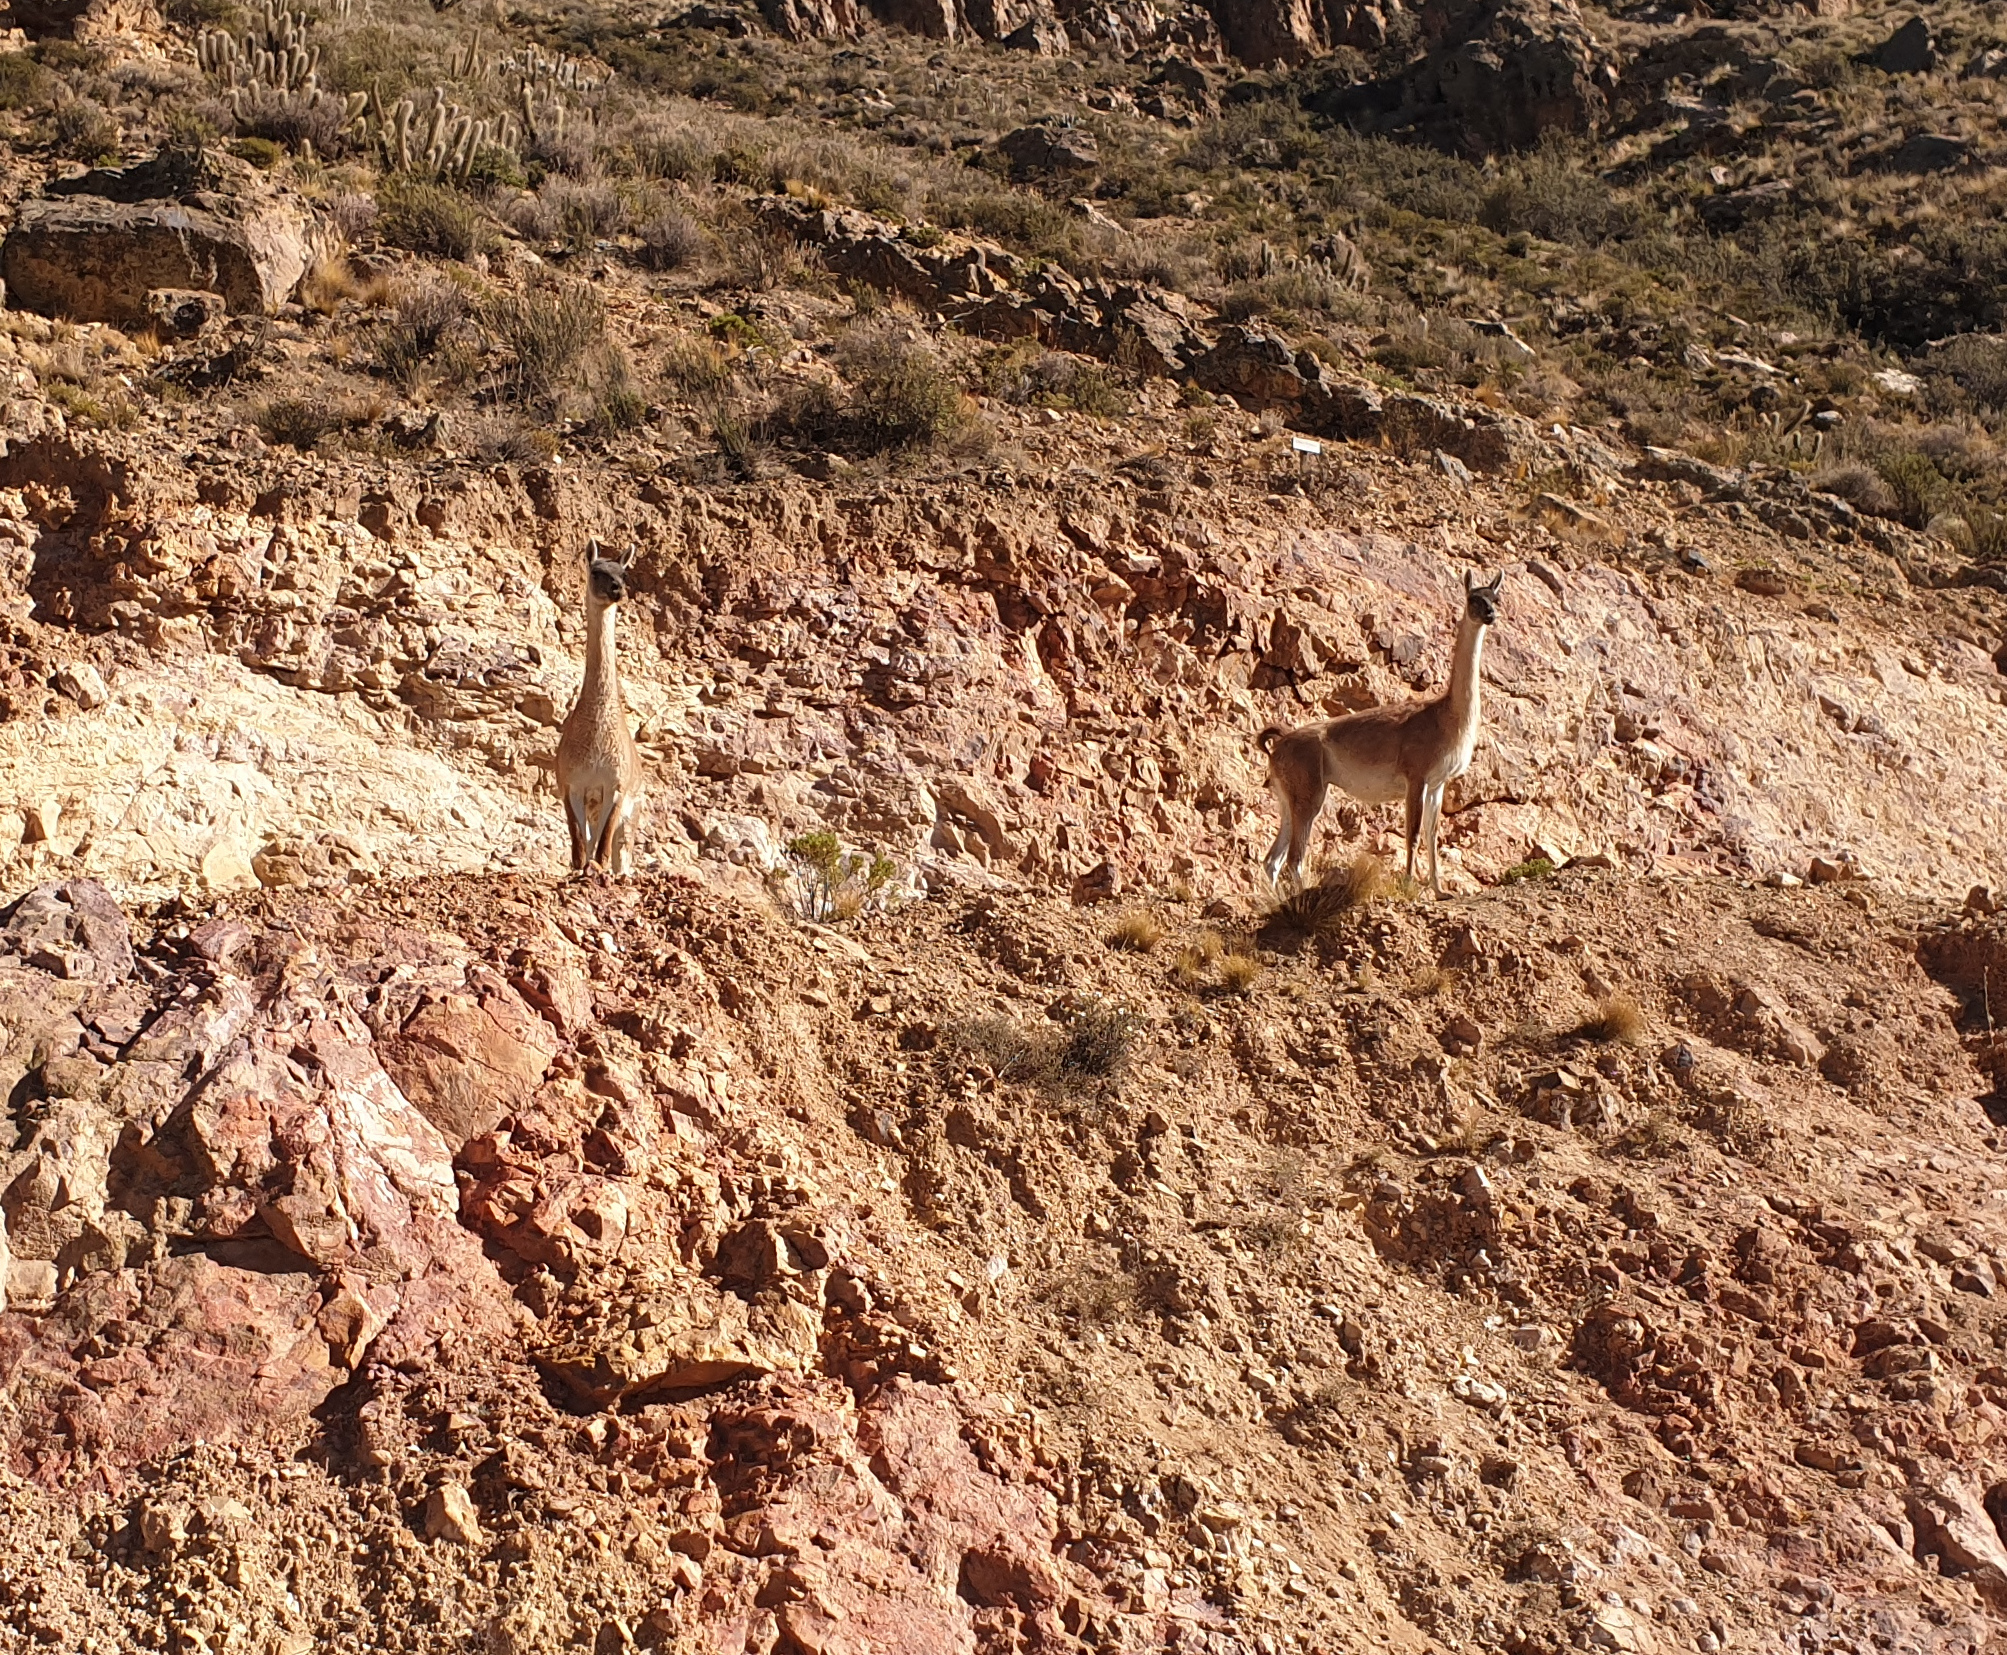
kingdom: Animalia
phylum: Chordata
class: Mammalia
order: Artiodactyla
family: Camelidae
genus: Lama
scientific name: Lama glama
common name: Llama
